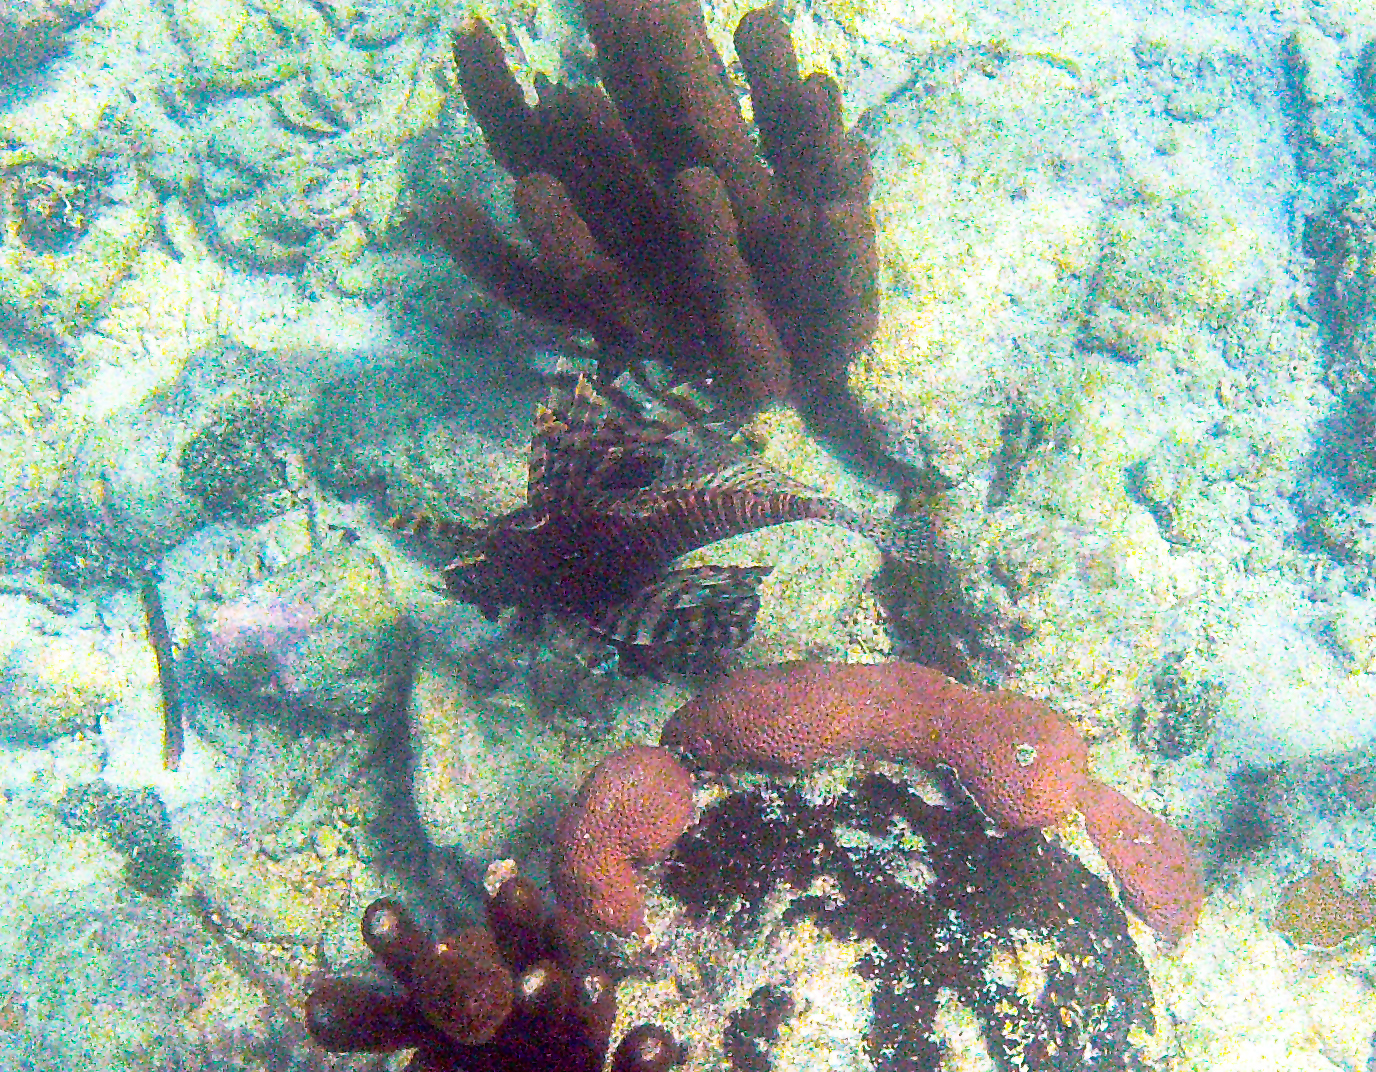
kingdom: Animalia
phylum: Chordata
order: Scorpaeniformes
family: Scorpaenidae
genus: Pterois
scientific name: Pterois volitans
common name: Lionfish
